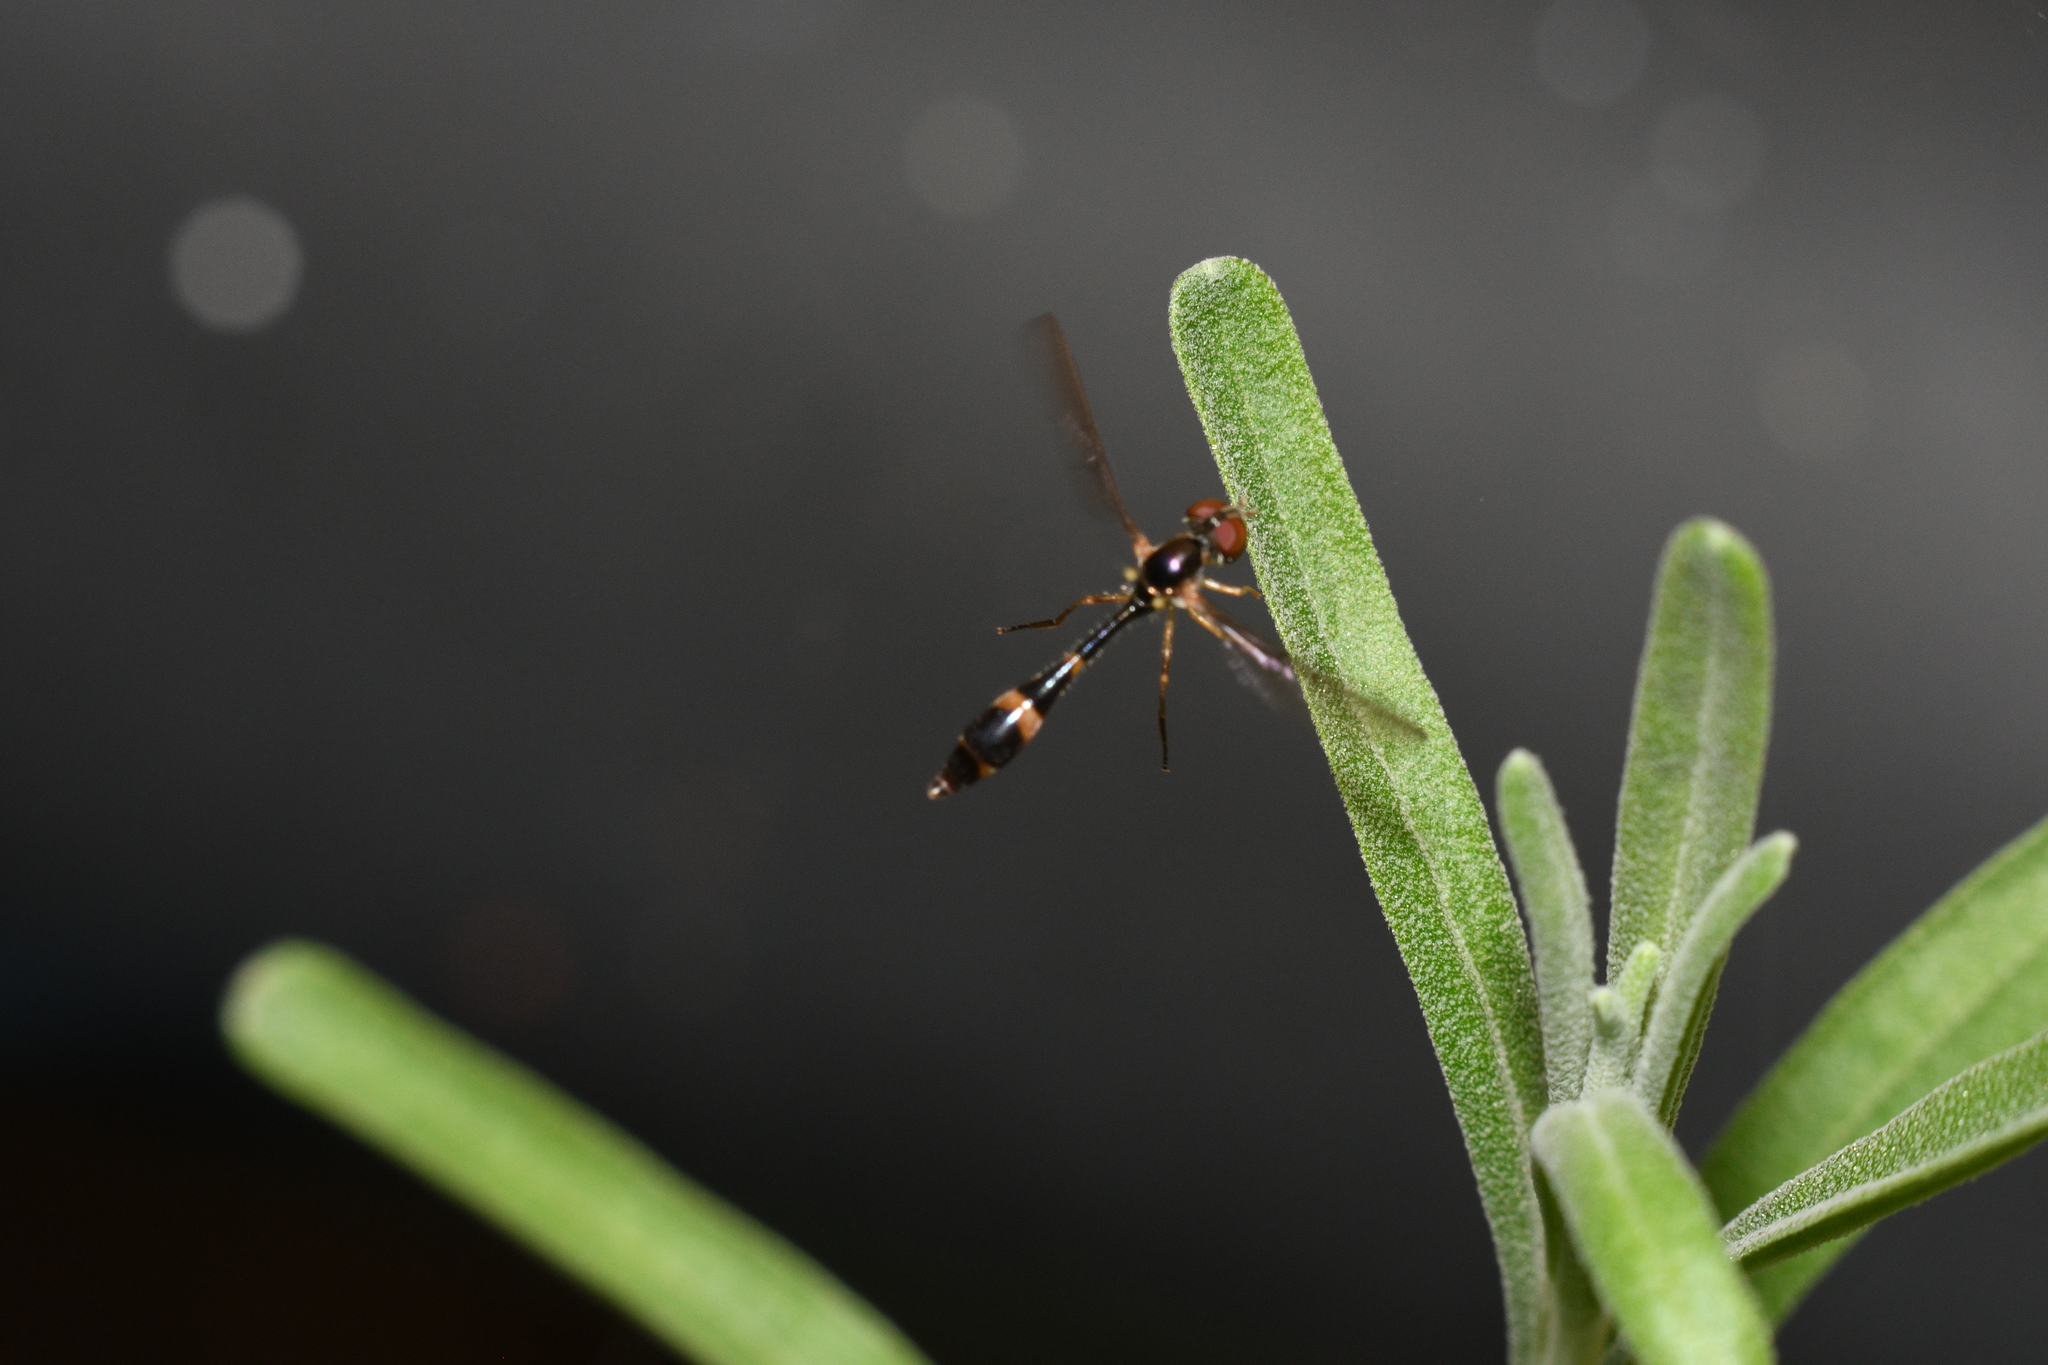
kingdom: Animalia
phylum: Arthropoda
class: Insecta
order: Diptera
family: Syrphidae
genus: Baccha
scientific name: Baccha elongata
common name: Common dainty
